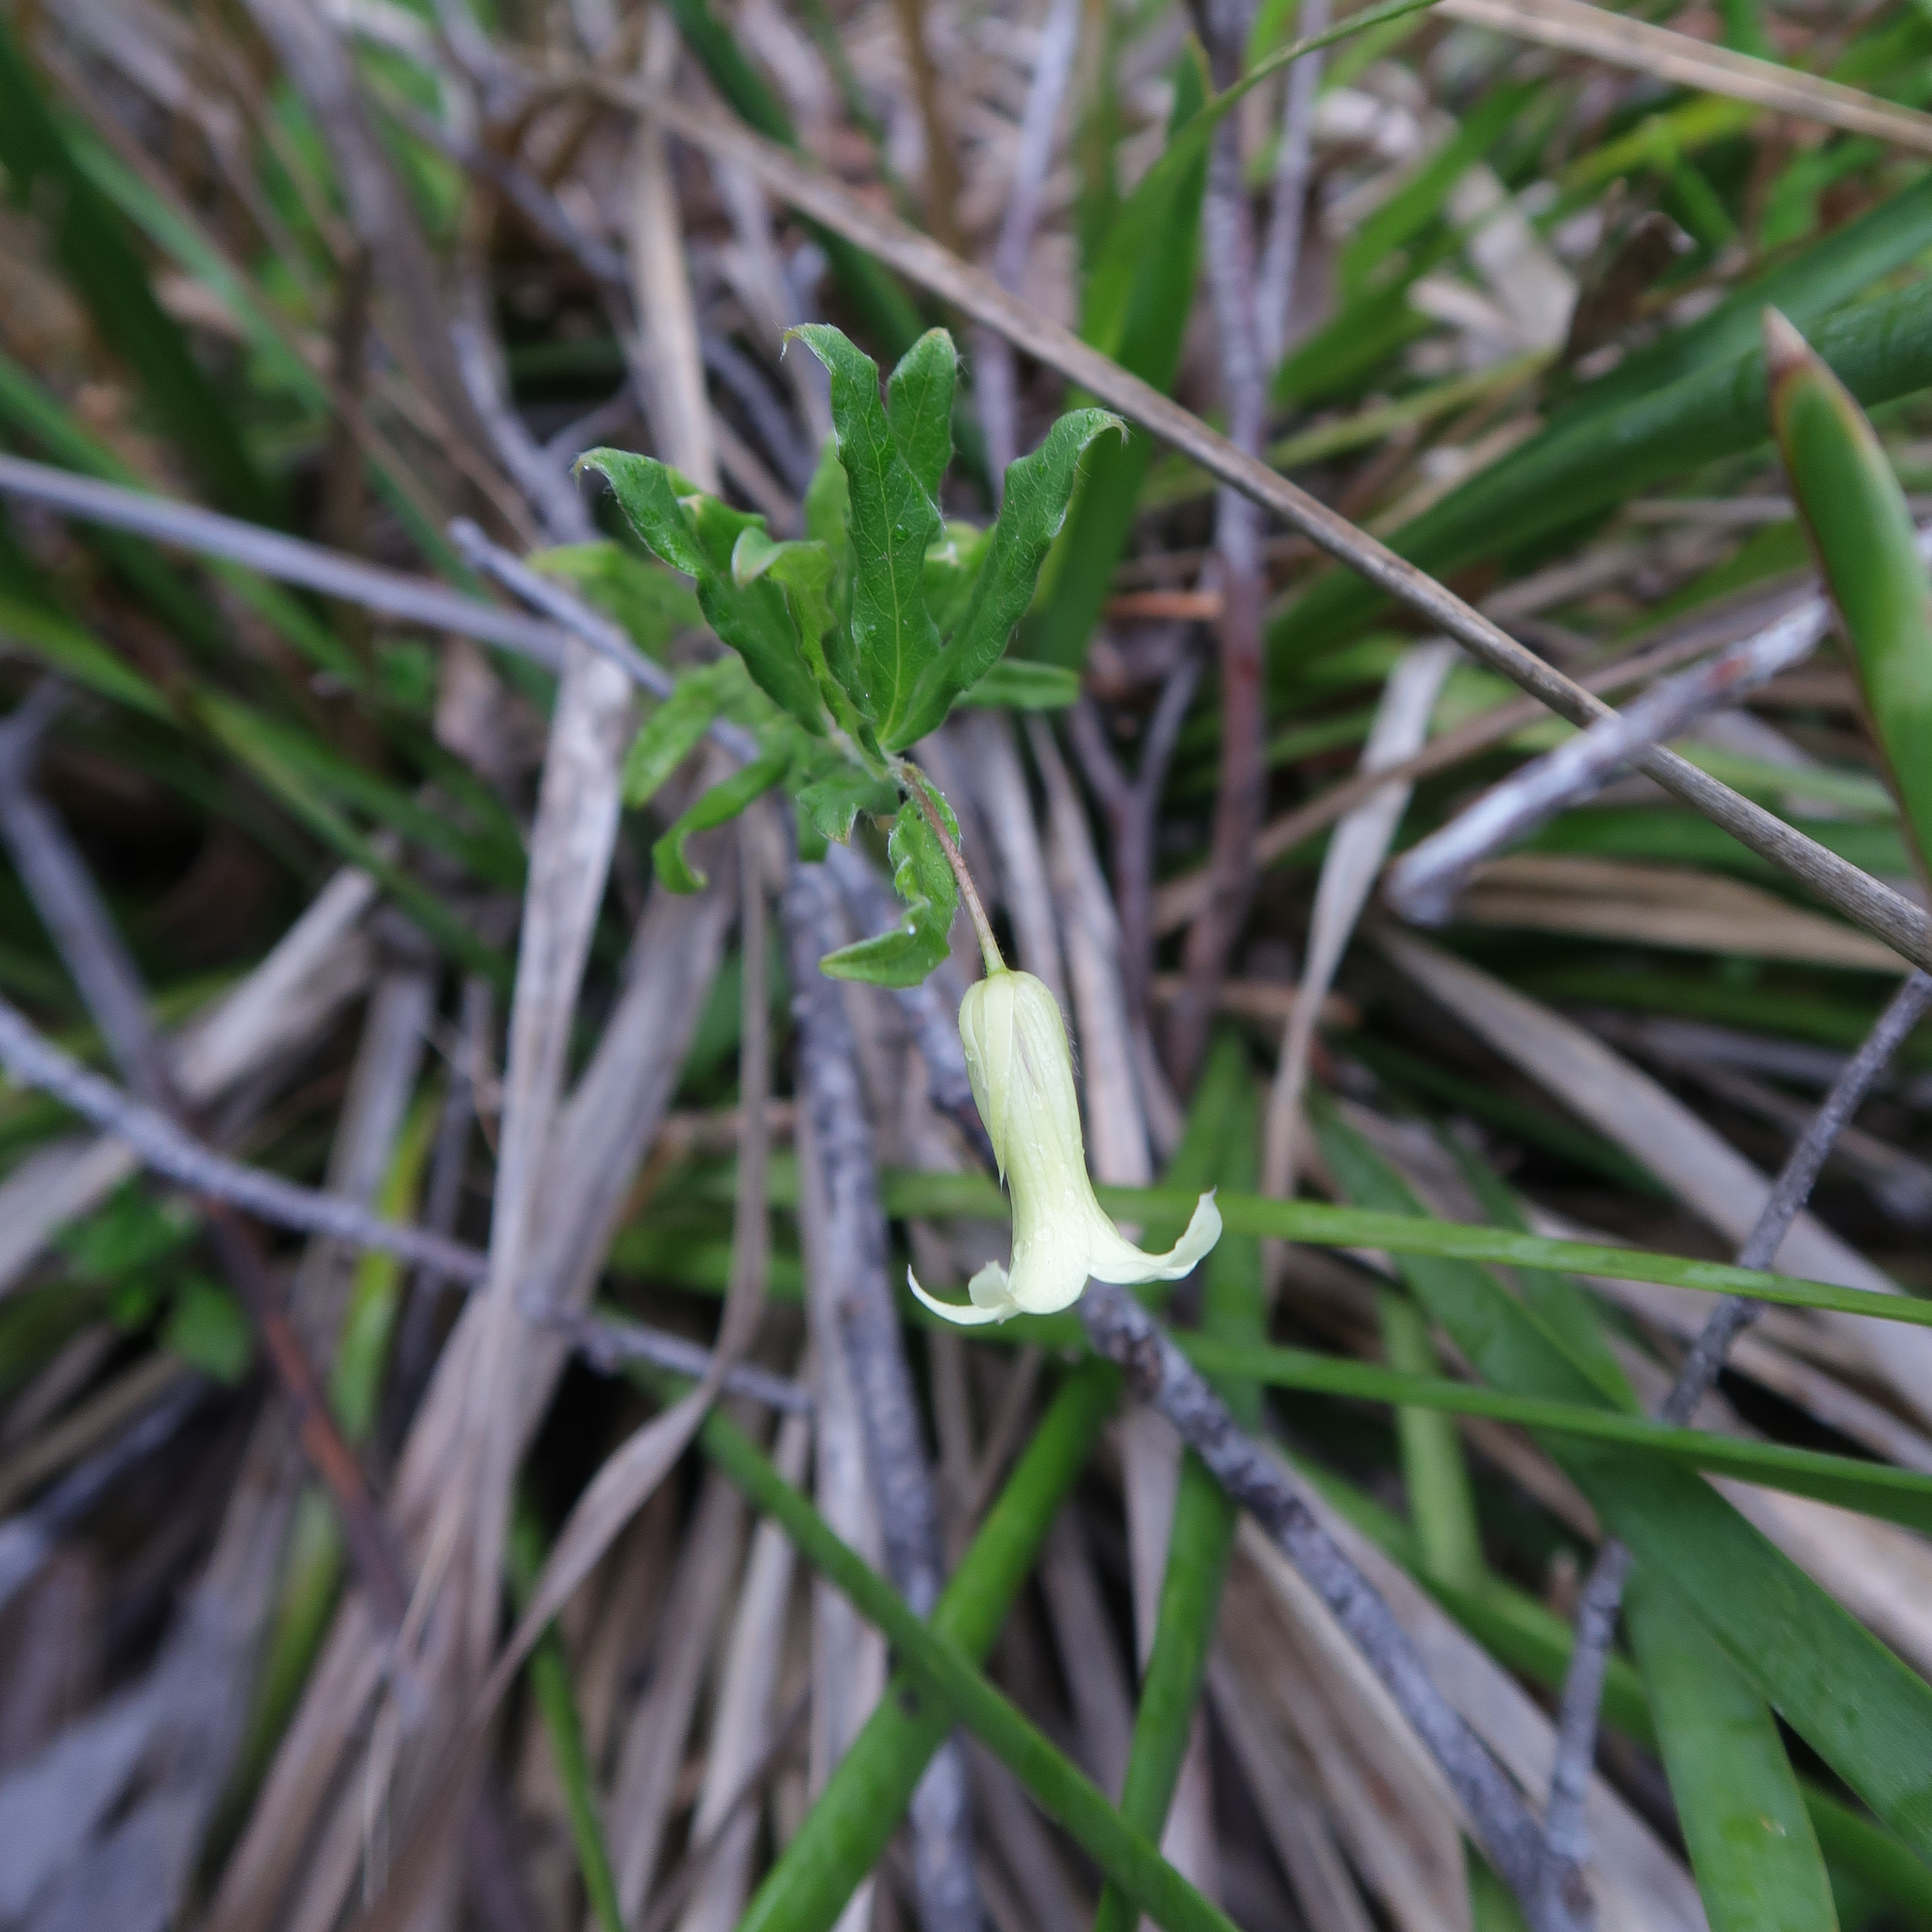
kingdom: Plantae
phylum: Tracheophyta
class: Magnoliopsida
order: Apiales
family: Pittosporaceae
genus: Billardiera
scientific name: Billardiera mutabilis
